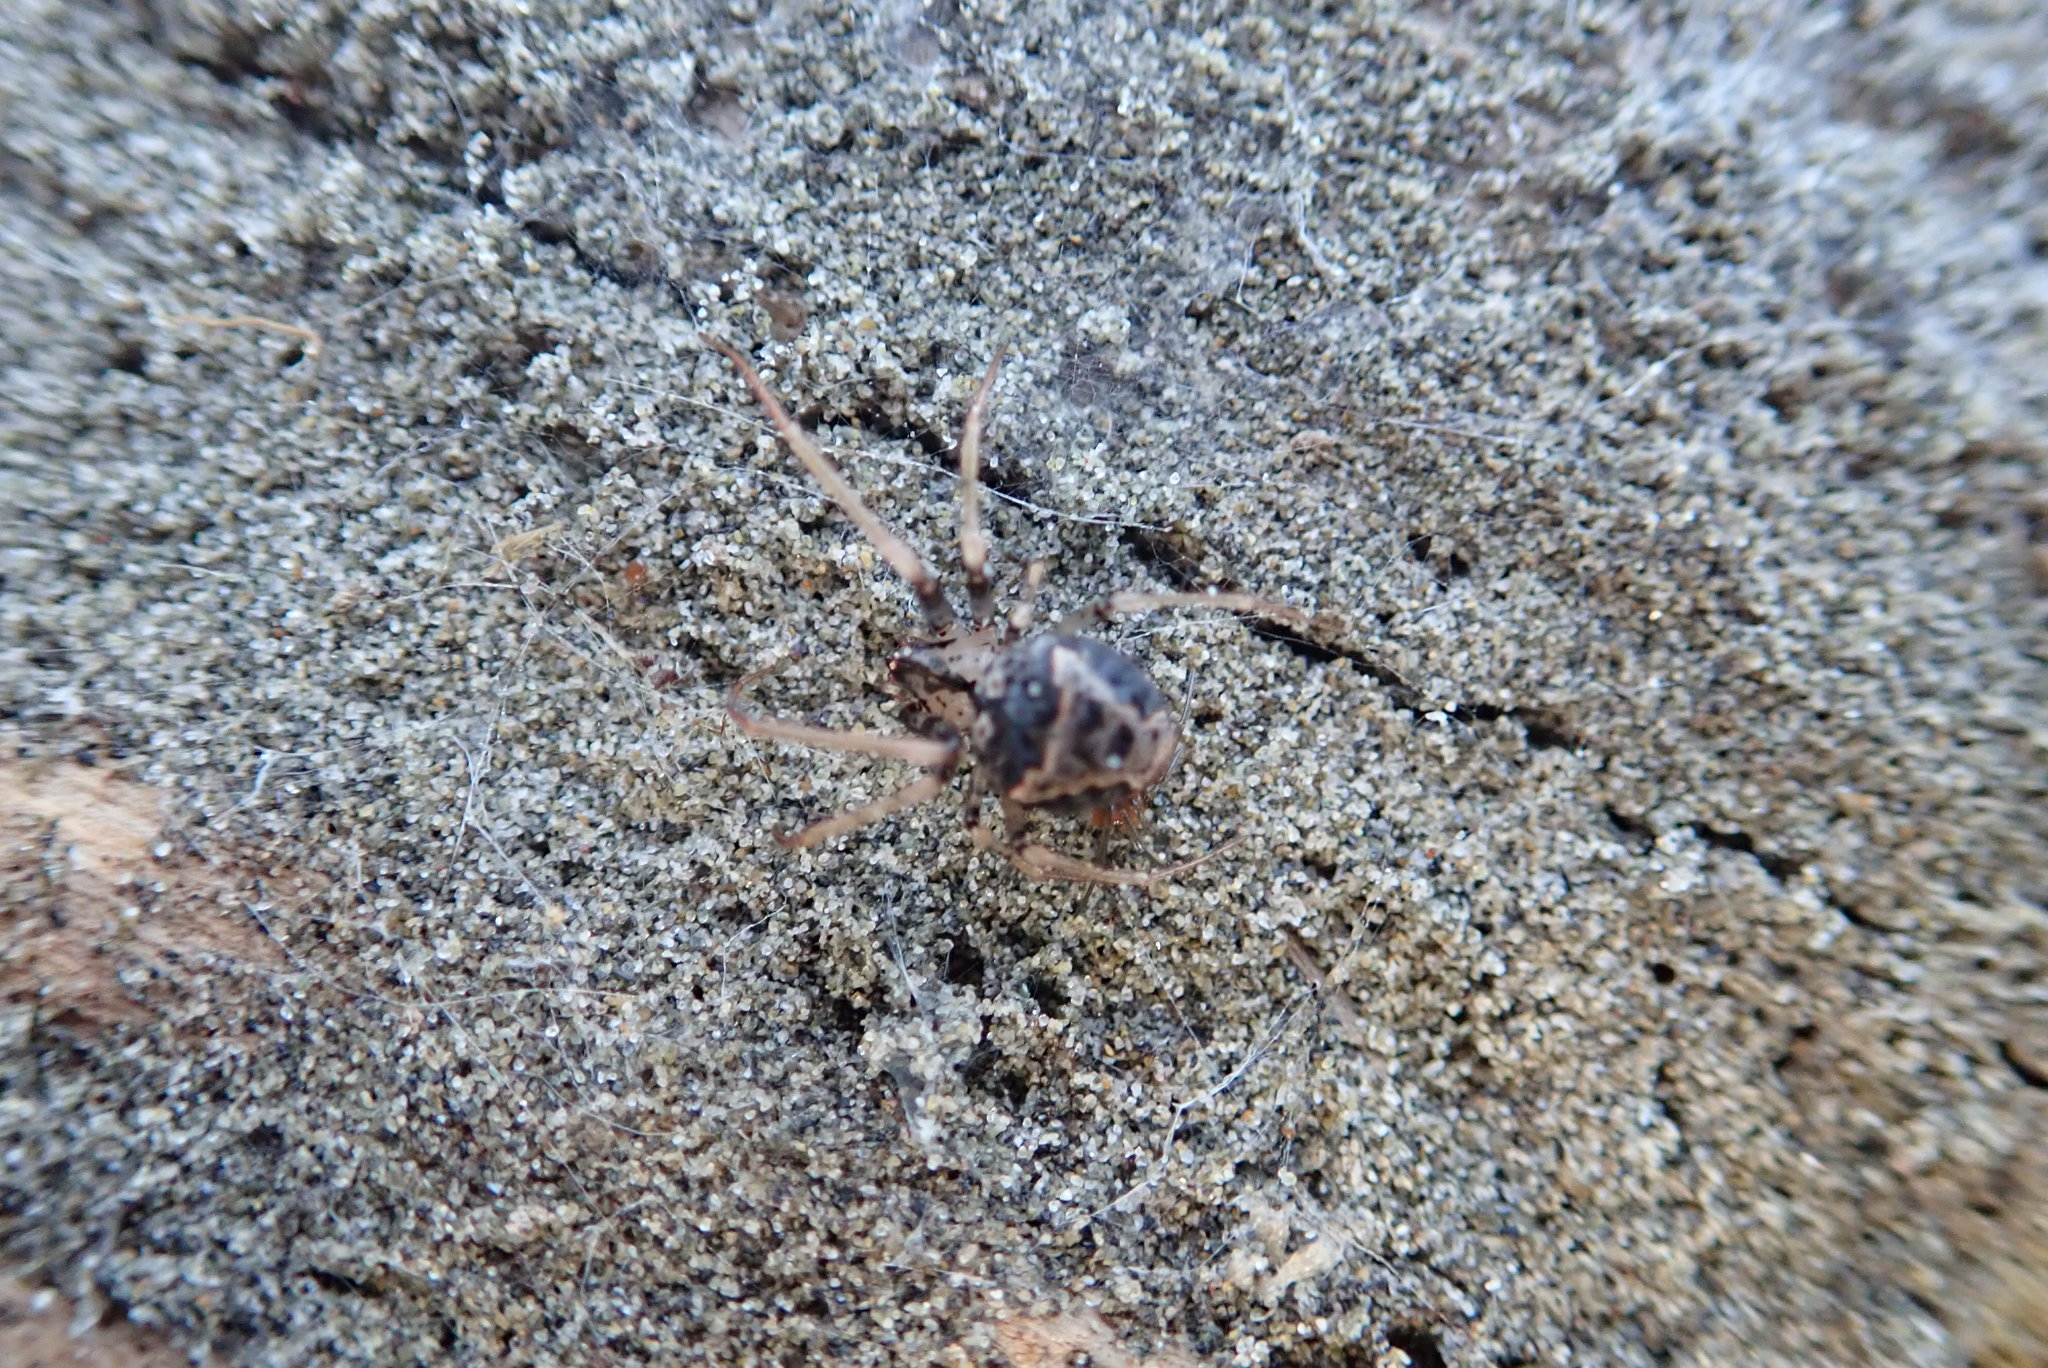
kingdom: Animalia
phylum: Arthropoda
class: Arachnida
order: Araneae
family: Mimetidae
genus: Australomimetus
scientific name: Australomimetus hartleyensis
